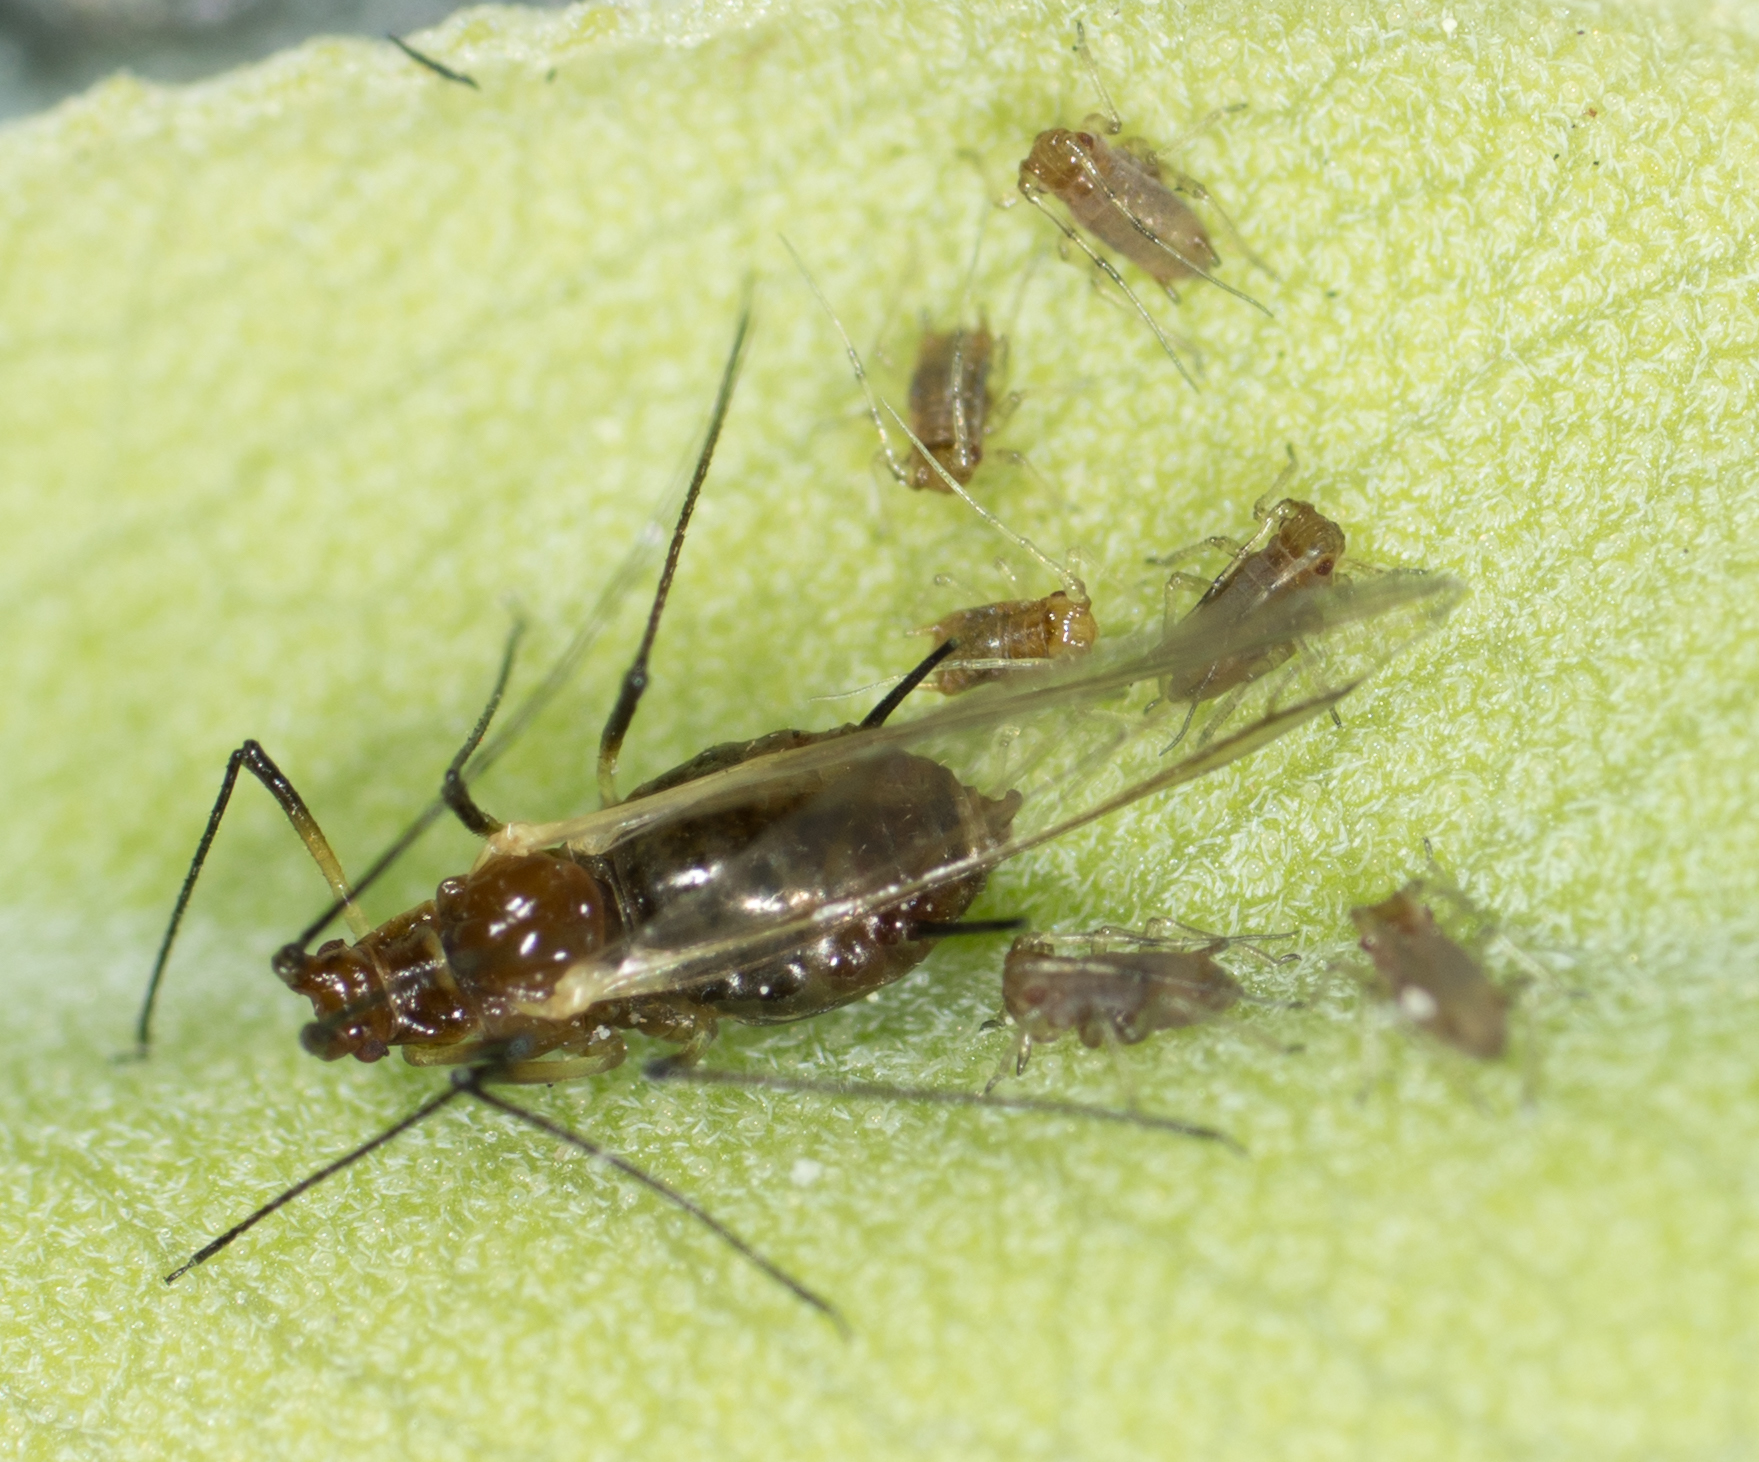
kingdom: Animalia
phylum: Arthropoda
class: Insecta
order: Hemiptera
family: Aphididae
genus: Macrosiphum
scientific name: Macrosiphum salviae
